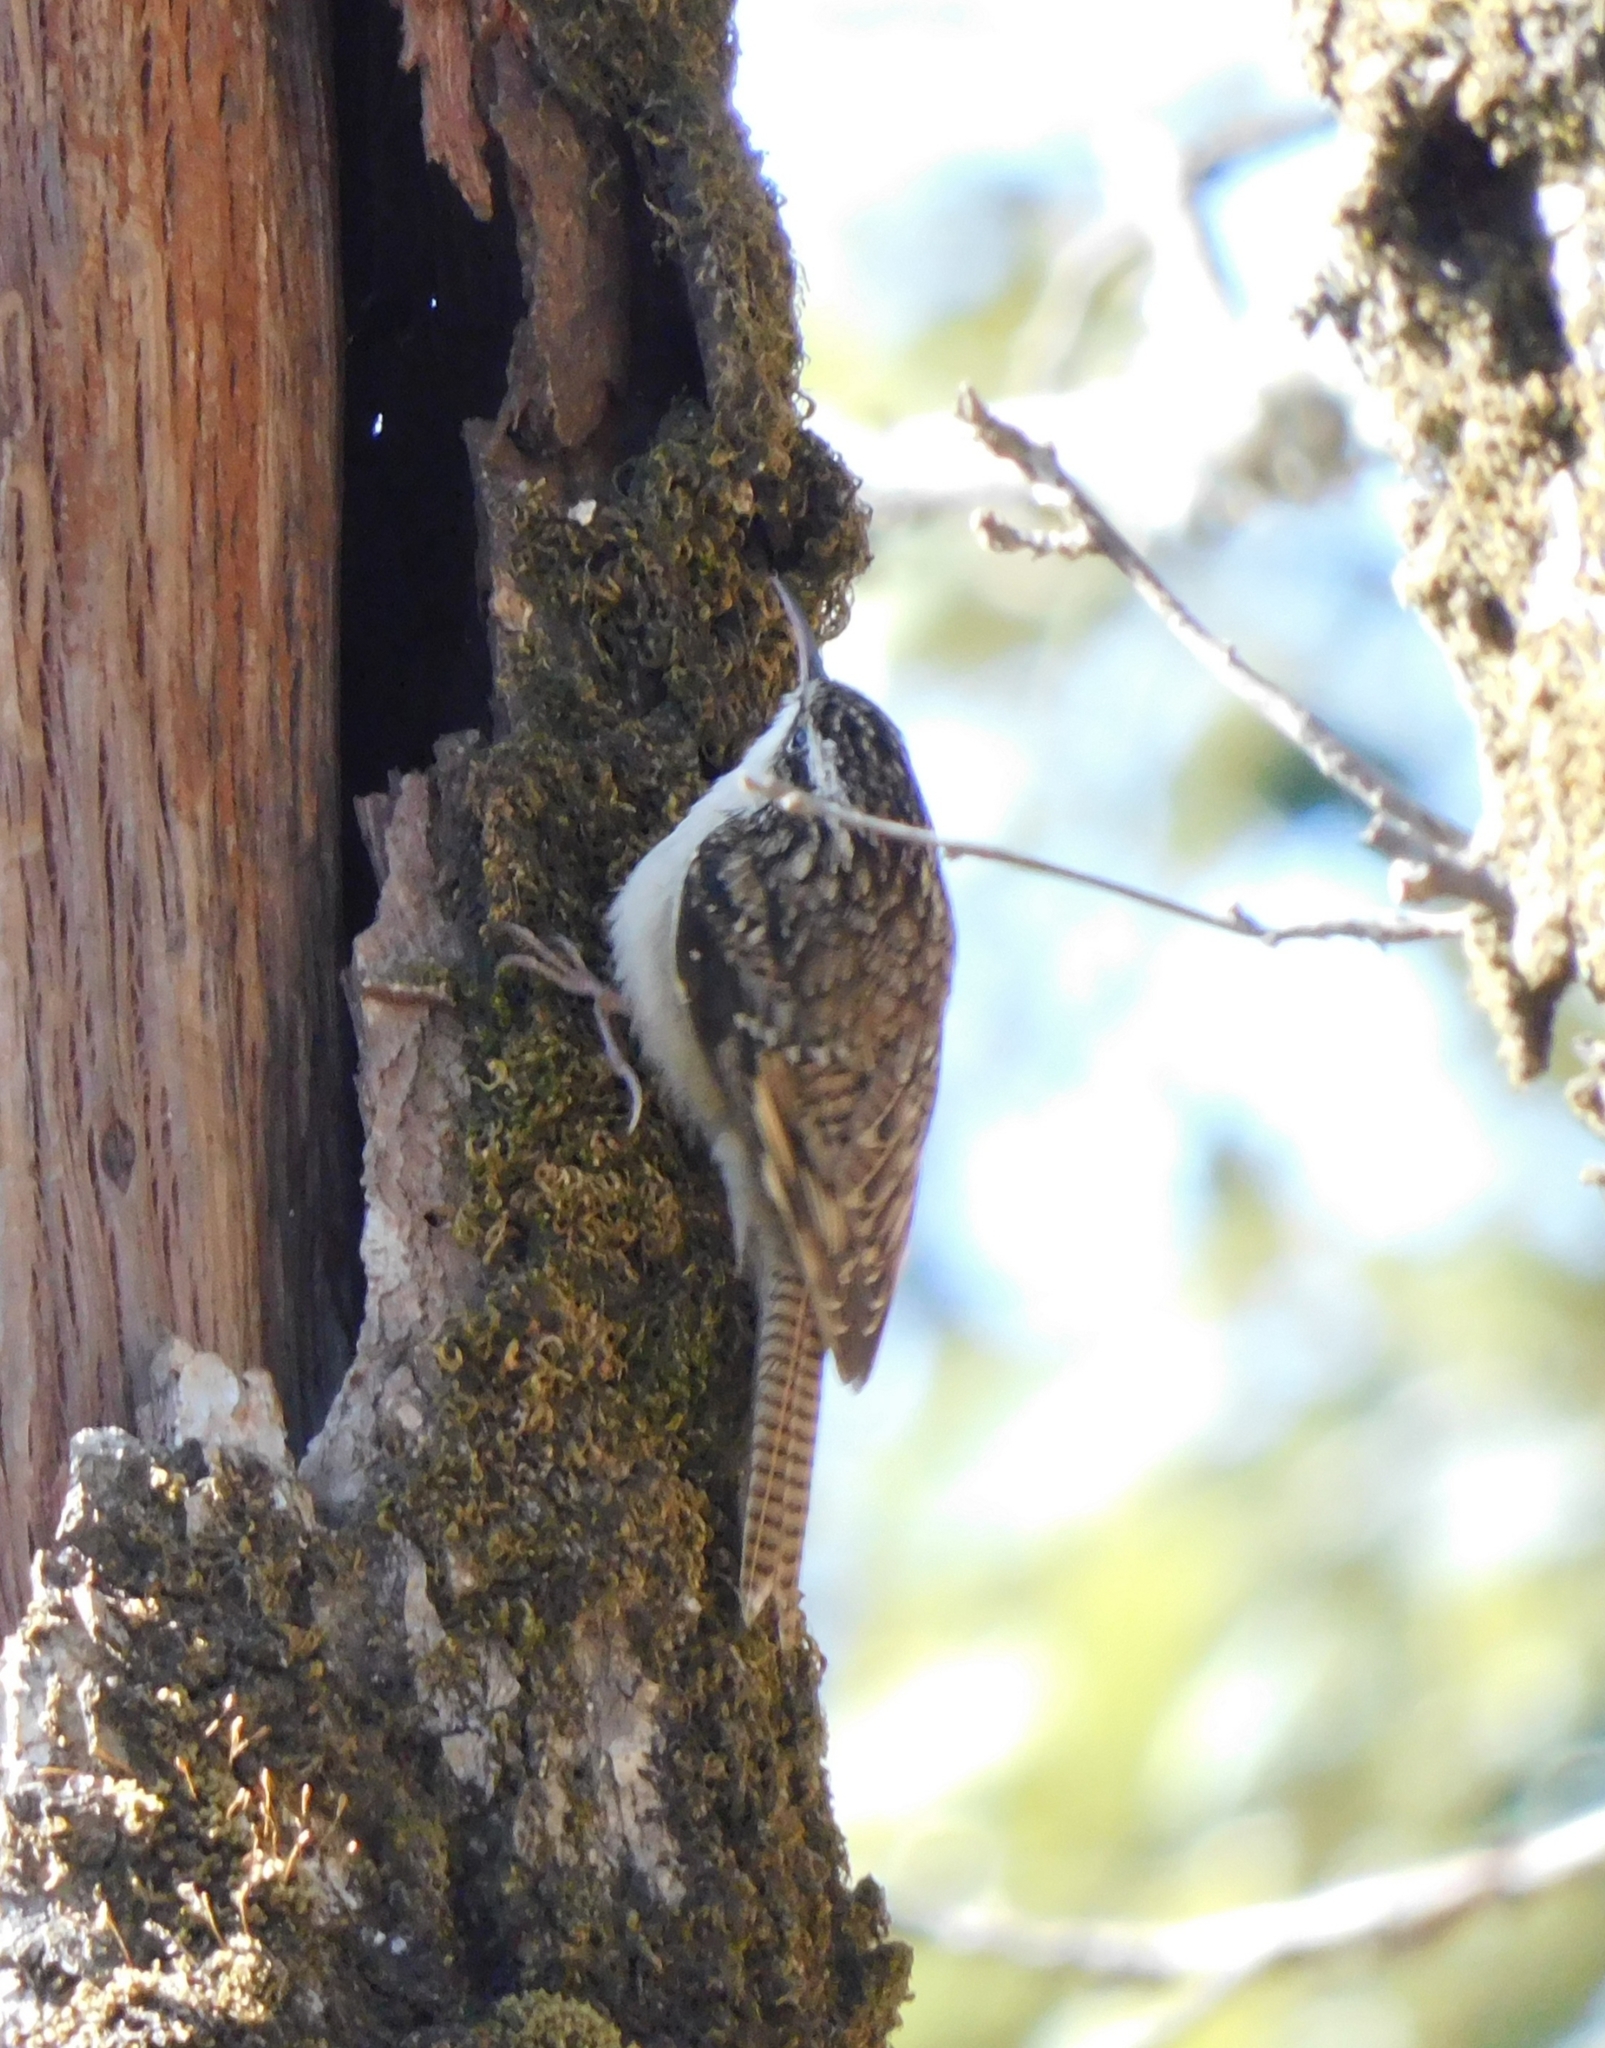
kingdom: Animalia
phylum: Chordata
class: Aves
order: Passeriformes
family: Certhiidae
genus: Certhia
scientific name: Certhia himalayana
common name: Bar-tailed treecreeper
